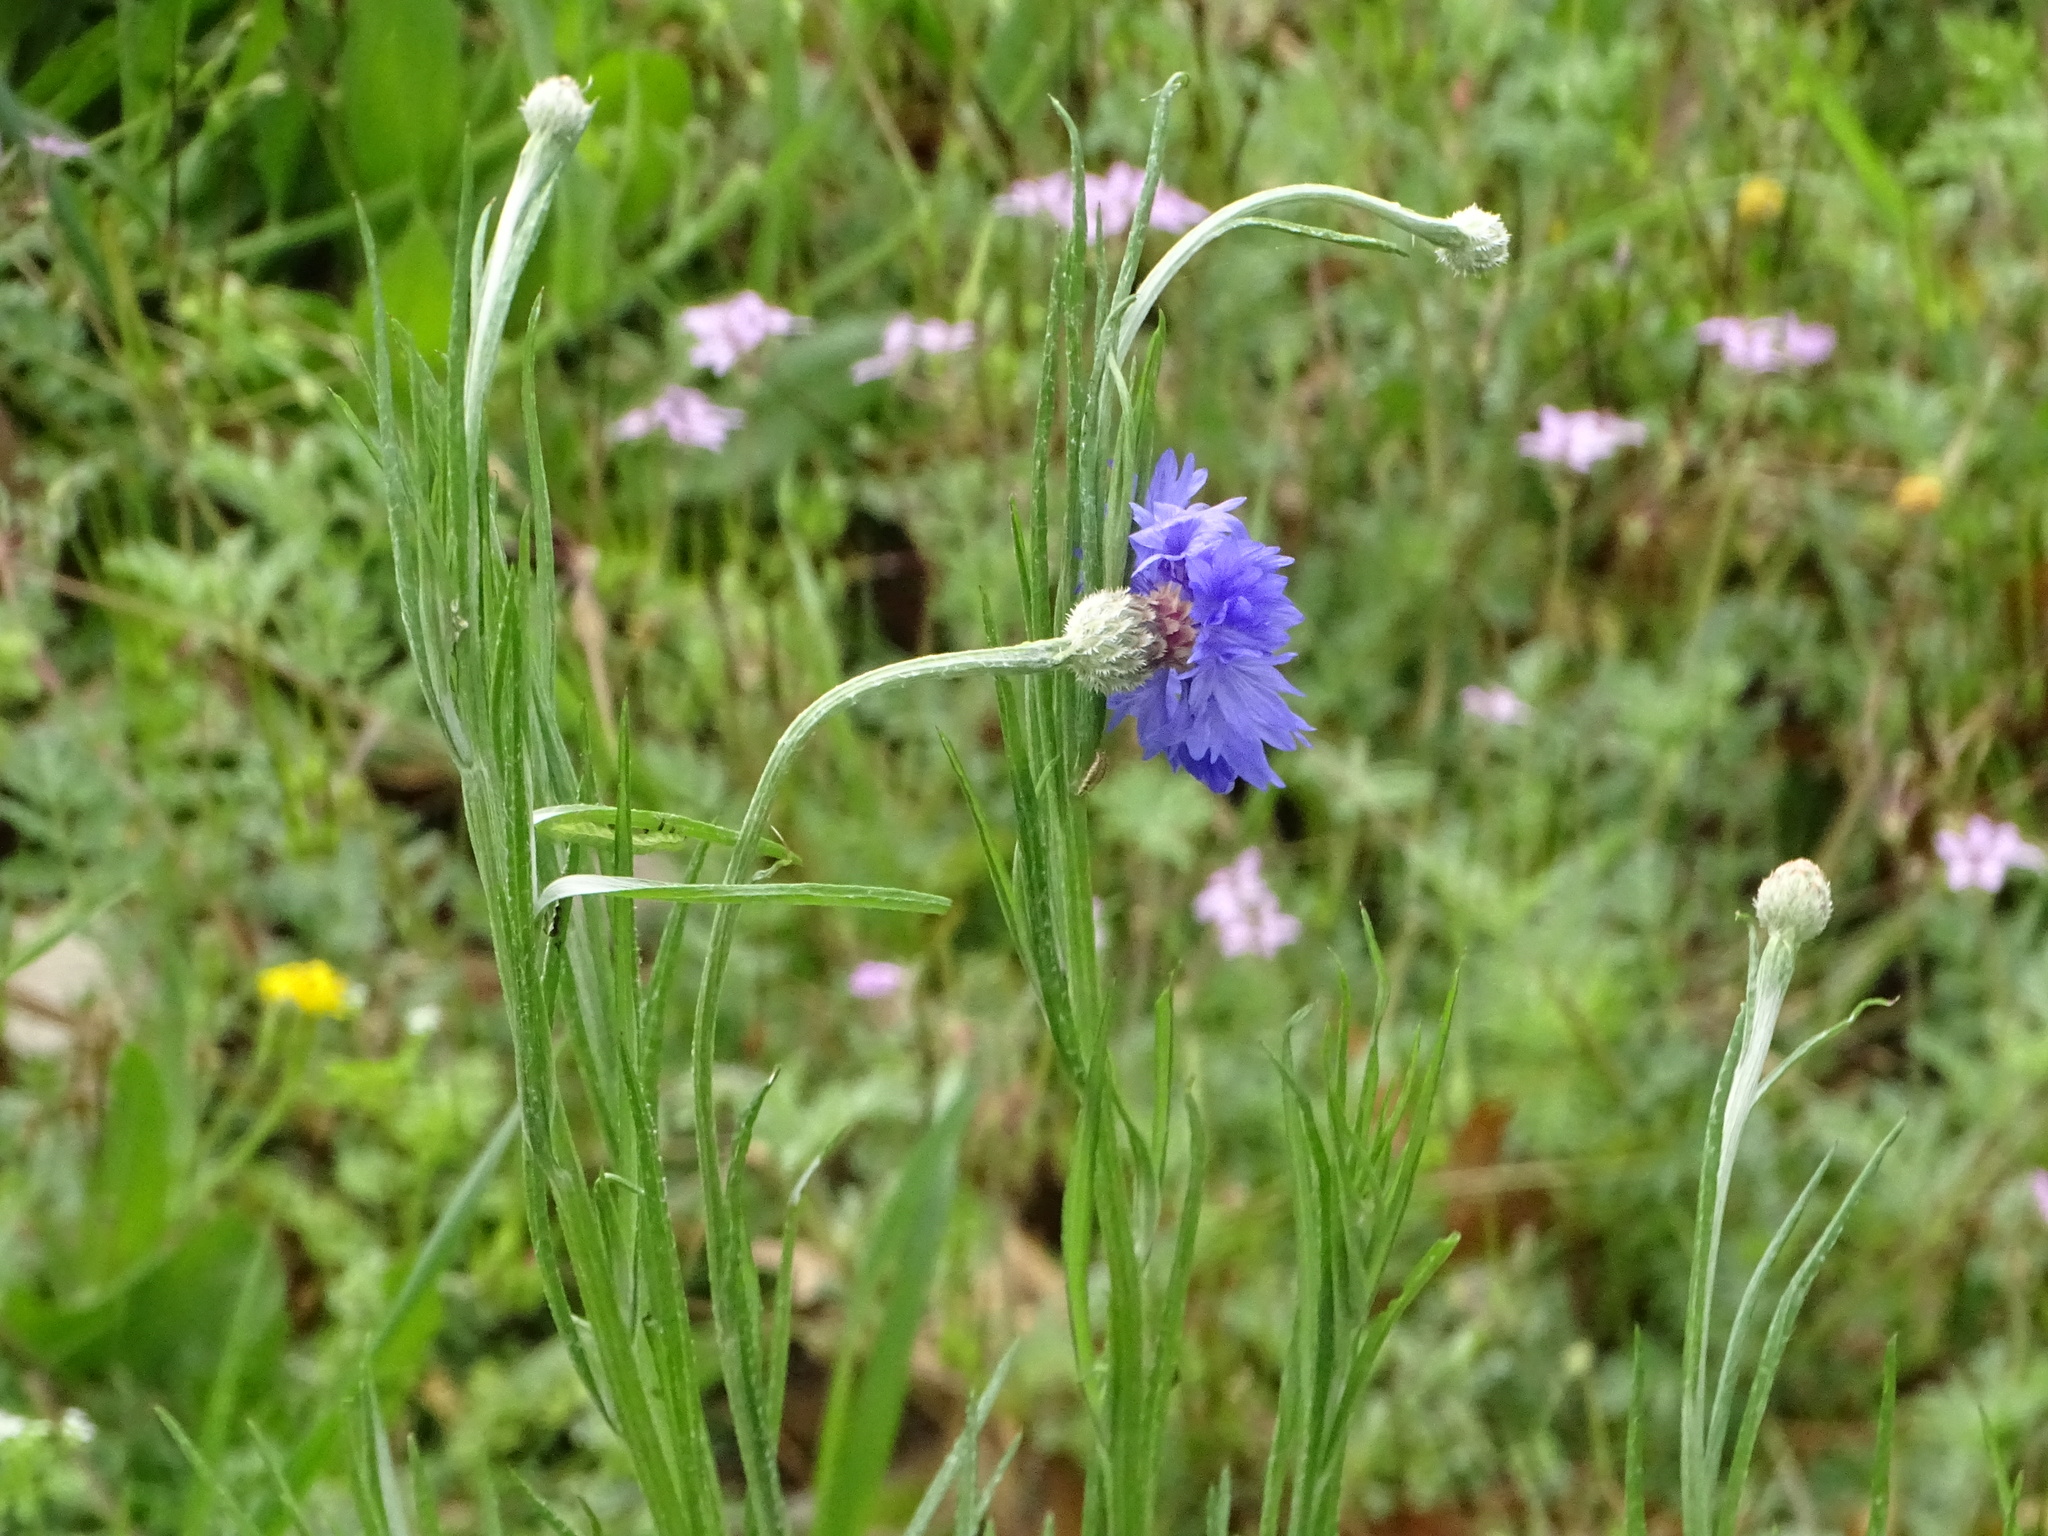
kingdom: Plantae
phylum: Tracheophyta
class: Magnoliopsida
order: Asterales
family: Asteraceae
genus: Centaurea
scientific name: Centaurea cyanus
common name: Cornflower
